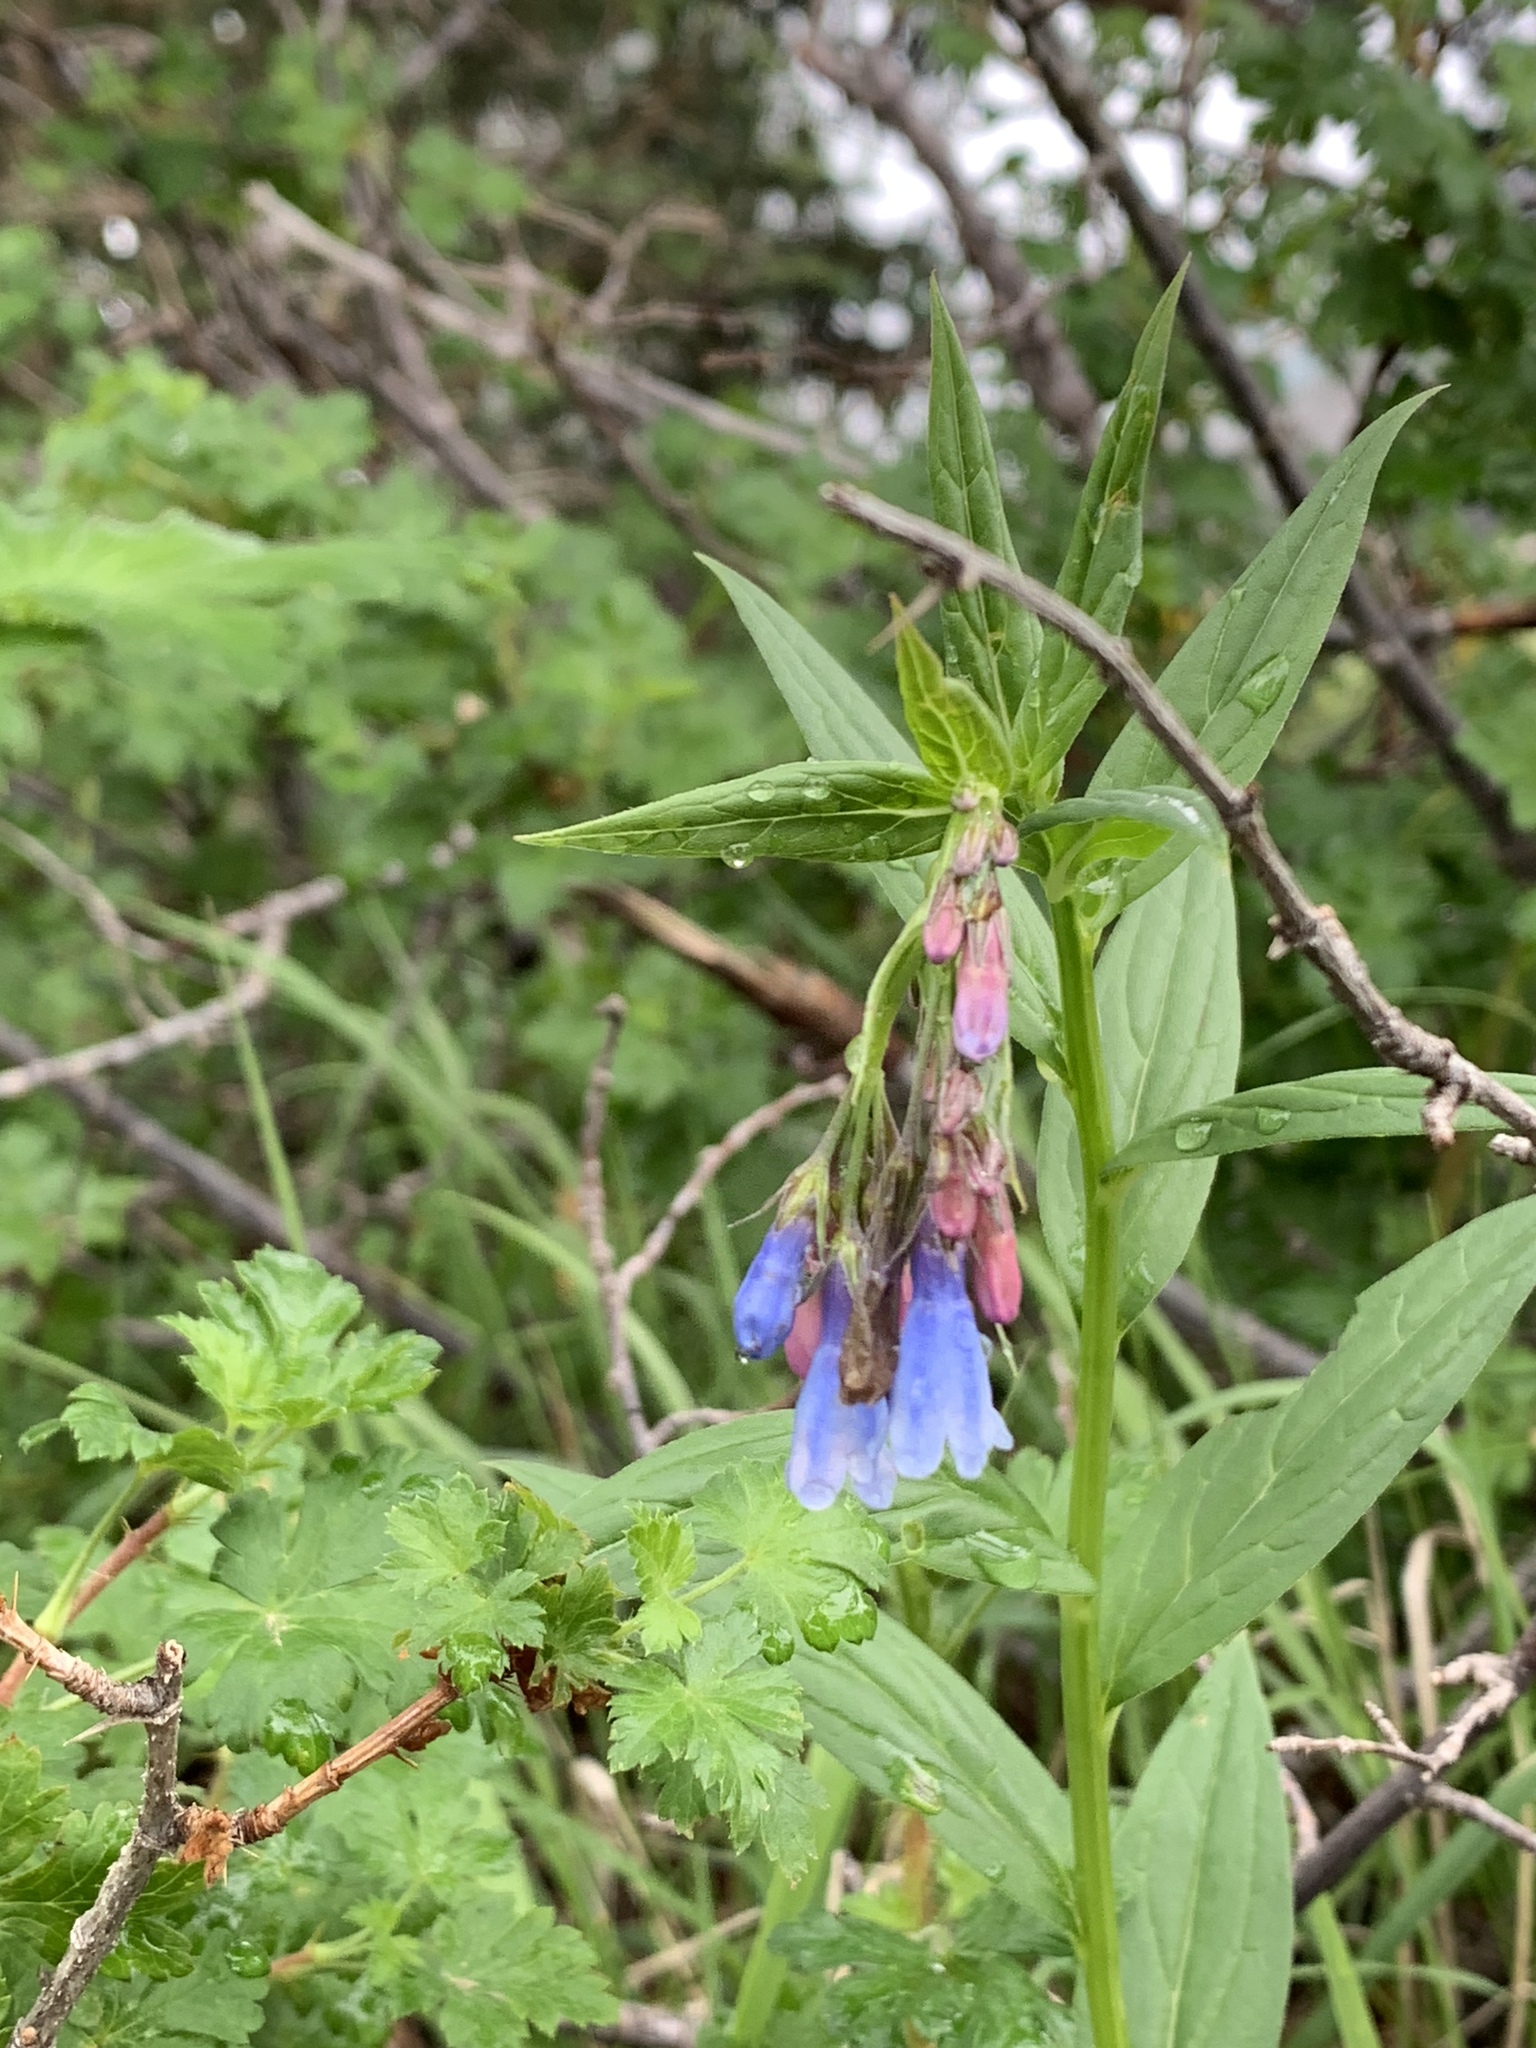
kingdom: Plantae
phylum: Tracheophyta
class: Magnoliopsida
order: Boraginales
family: Boraginaceae
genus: Mertensia
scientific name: Mertensia franciscana
